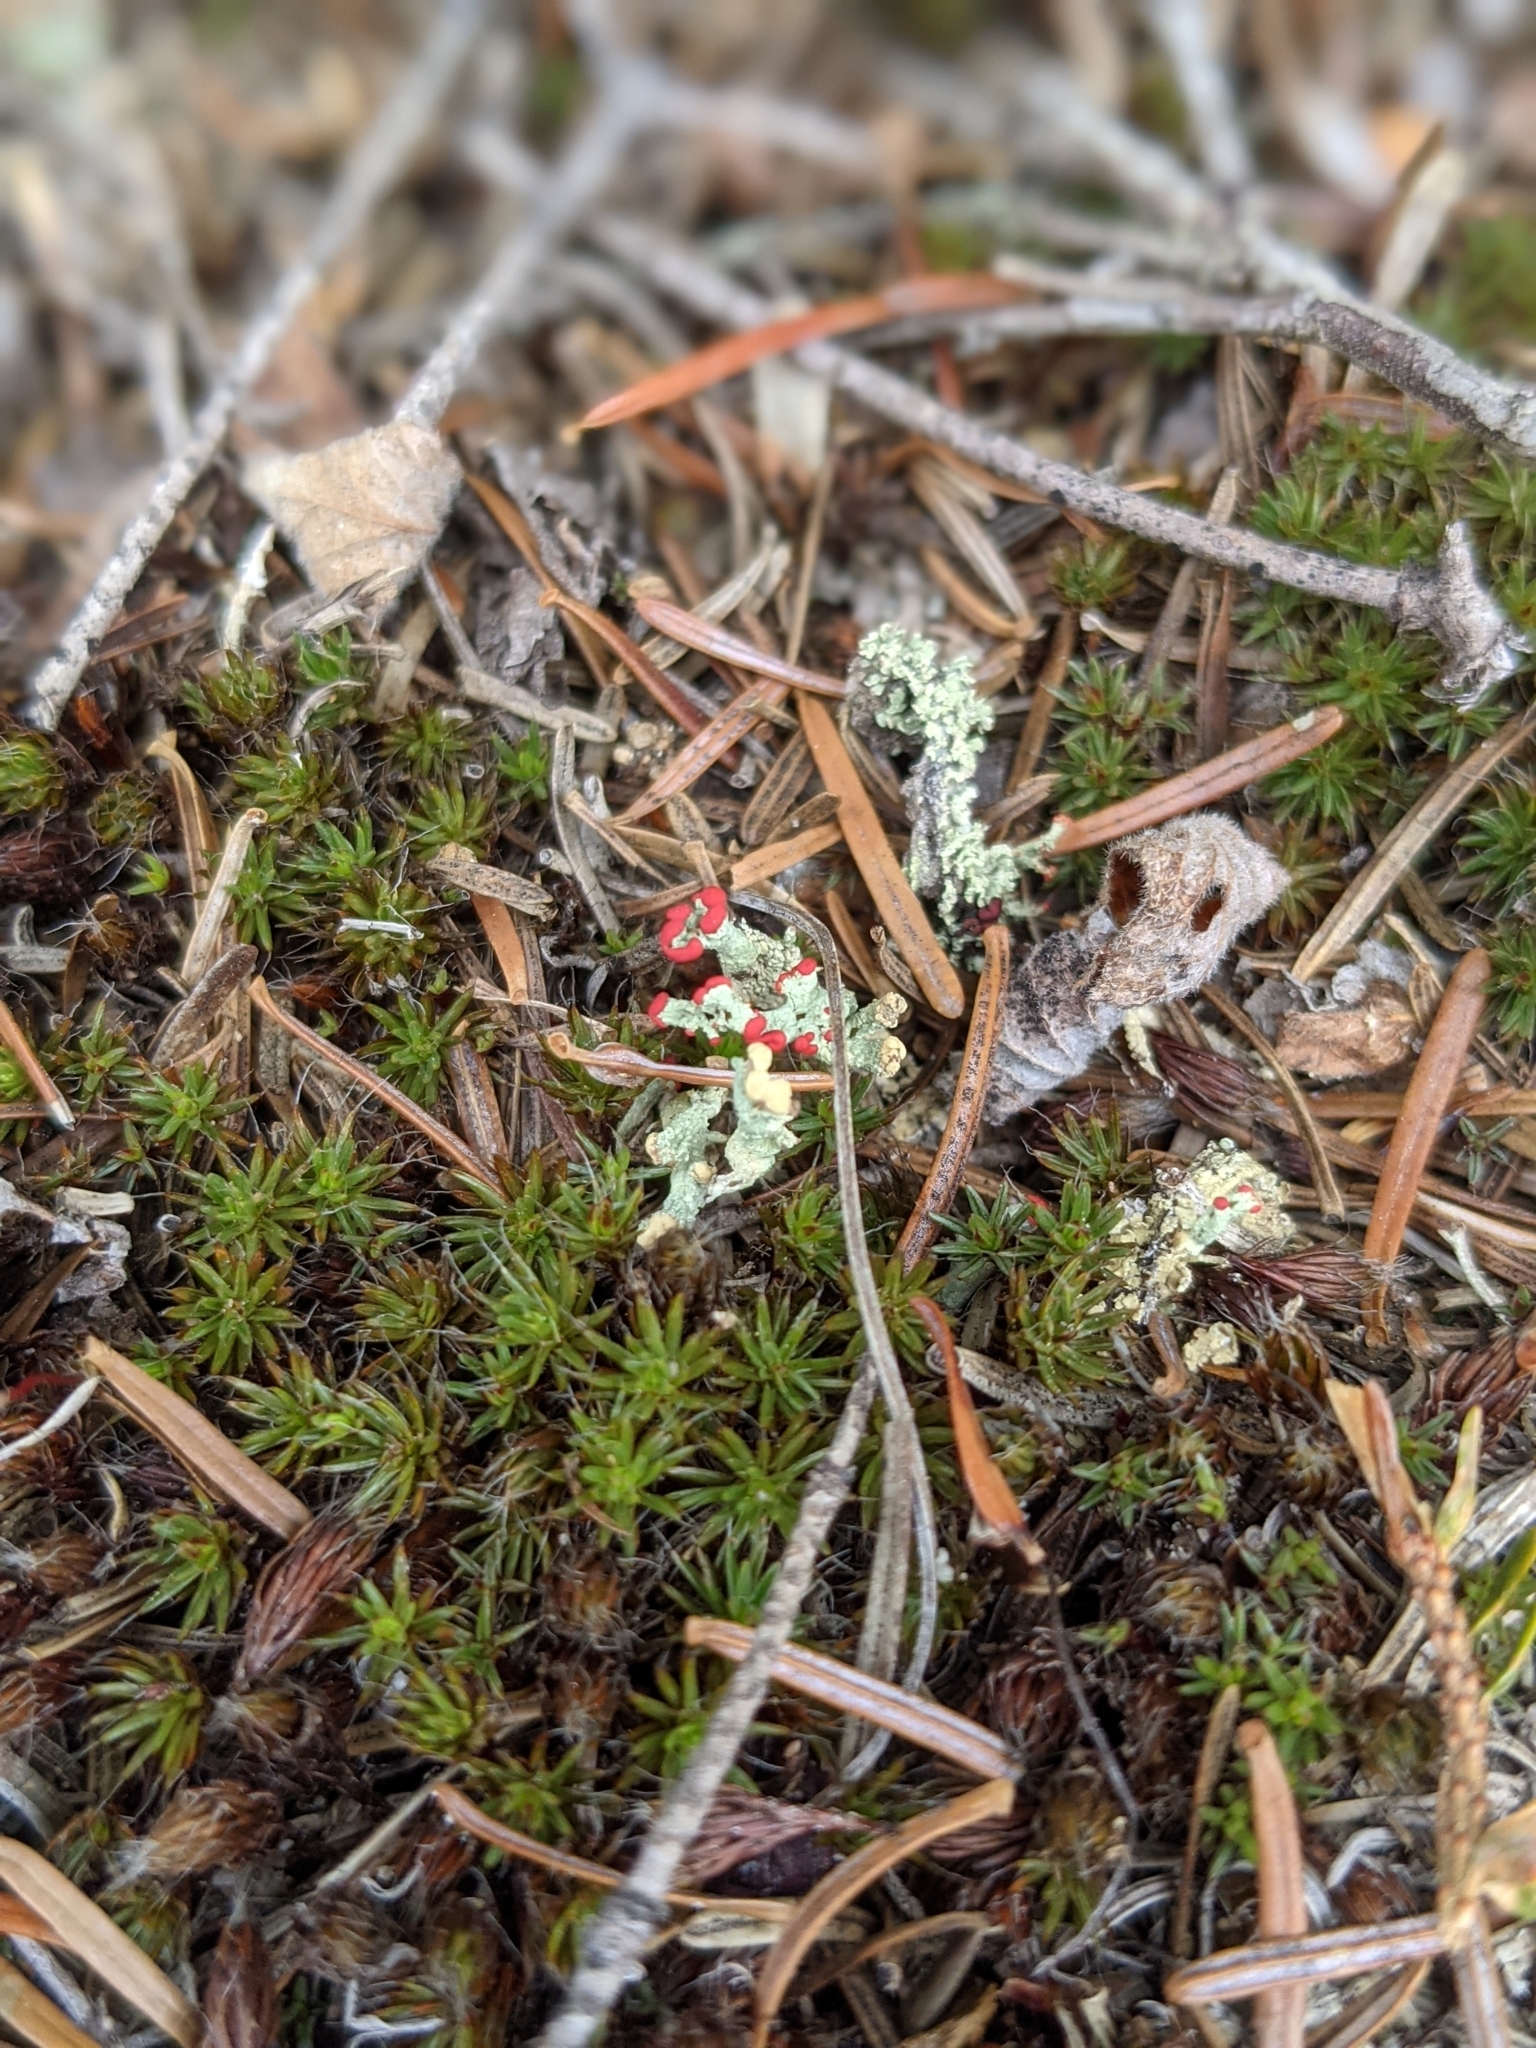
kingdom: Fungi
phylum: Ascomycota
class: Lecanoromycetes
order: Lecanorales
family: Cladoniaceae
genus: Cladonia
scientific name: Cladonia cristatella
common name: British soldier lichen
